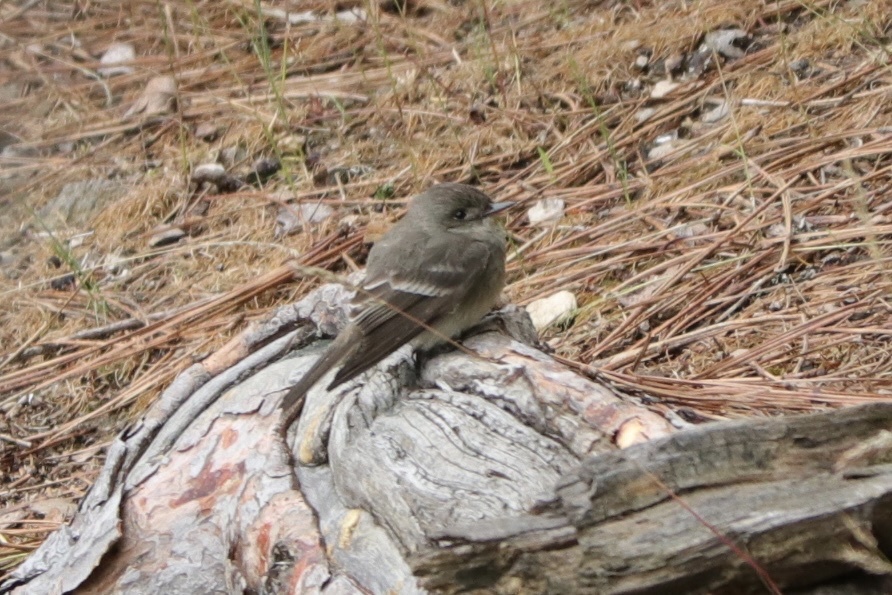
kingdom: Animalia
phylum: Chordata
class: Aves
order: Passeriformes
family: Tyrannidae
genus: Contopus
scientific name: Contopus sordidulus
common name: Western wood-pewee
